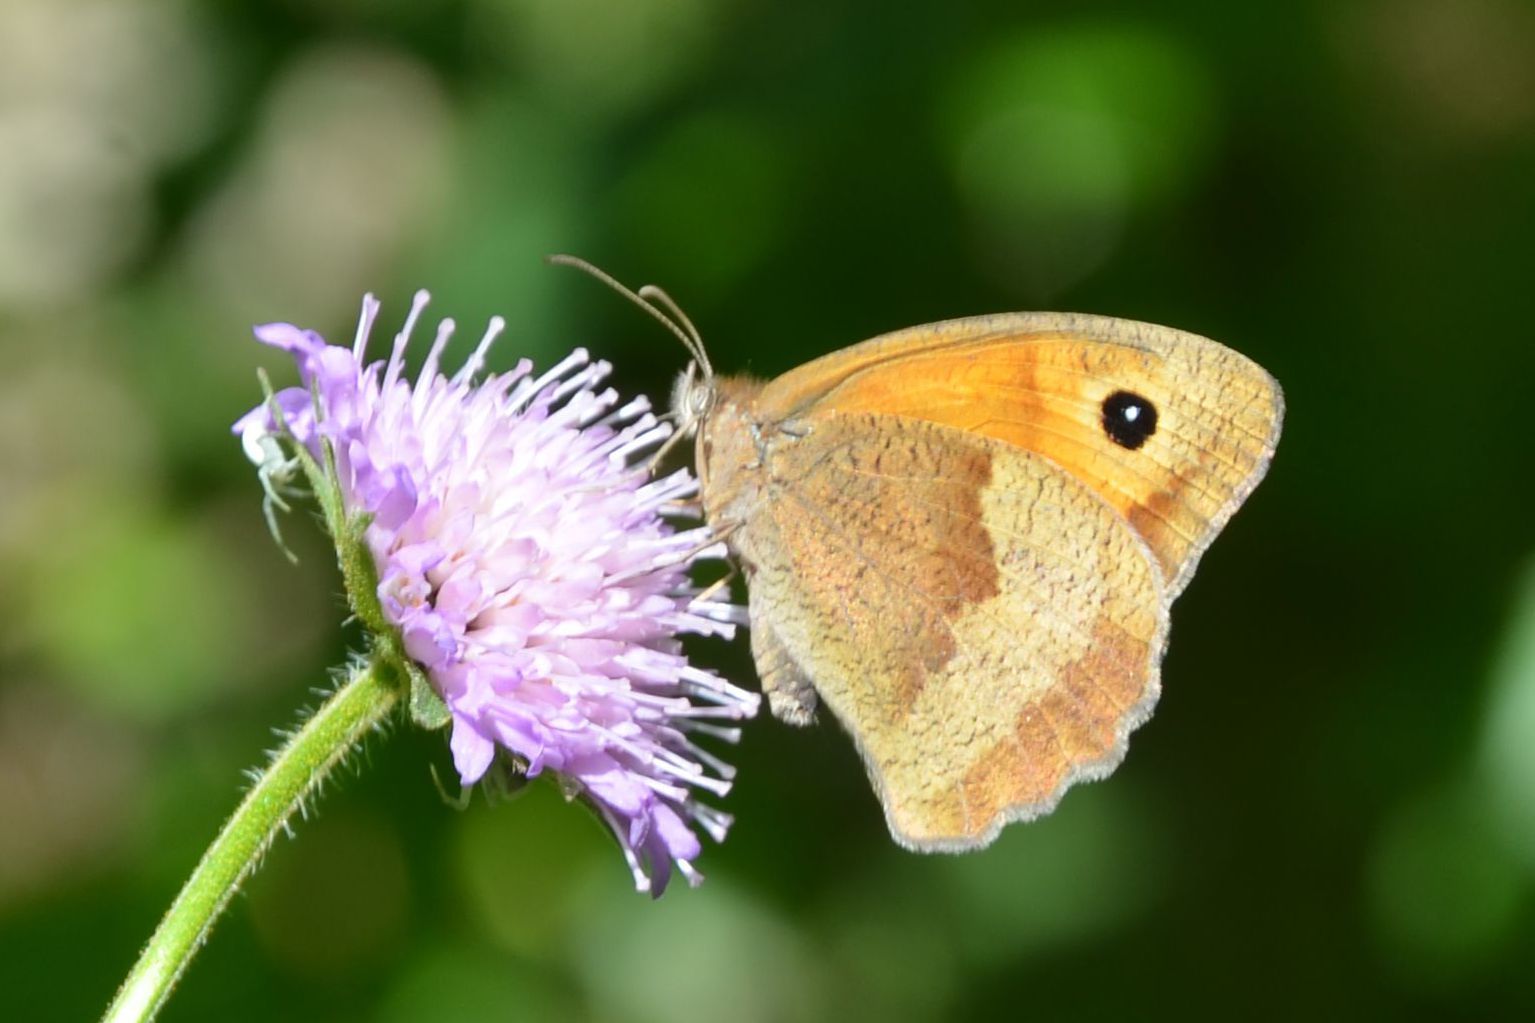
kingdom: Animalia
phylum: Arthropoda
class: Insecta
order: Lepidoptera
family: Nymphalidae
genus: Maniola
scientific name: Maniola jurtina
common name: Meadow brown
